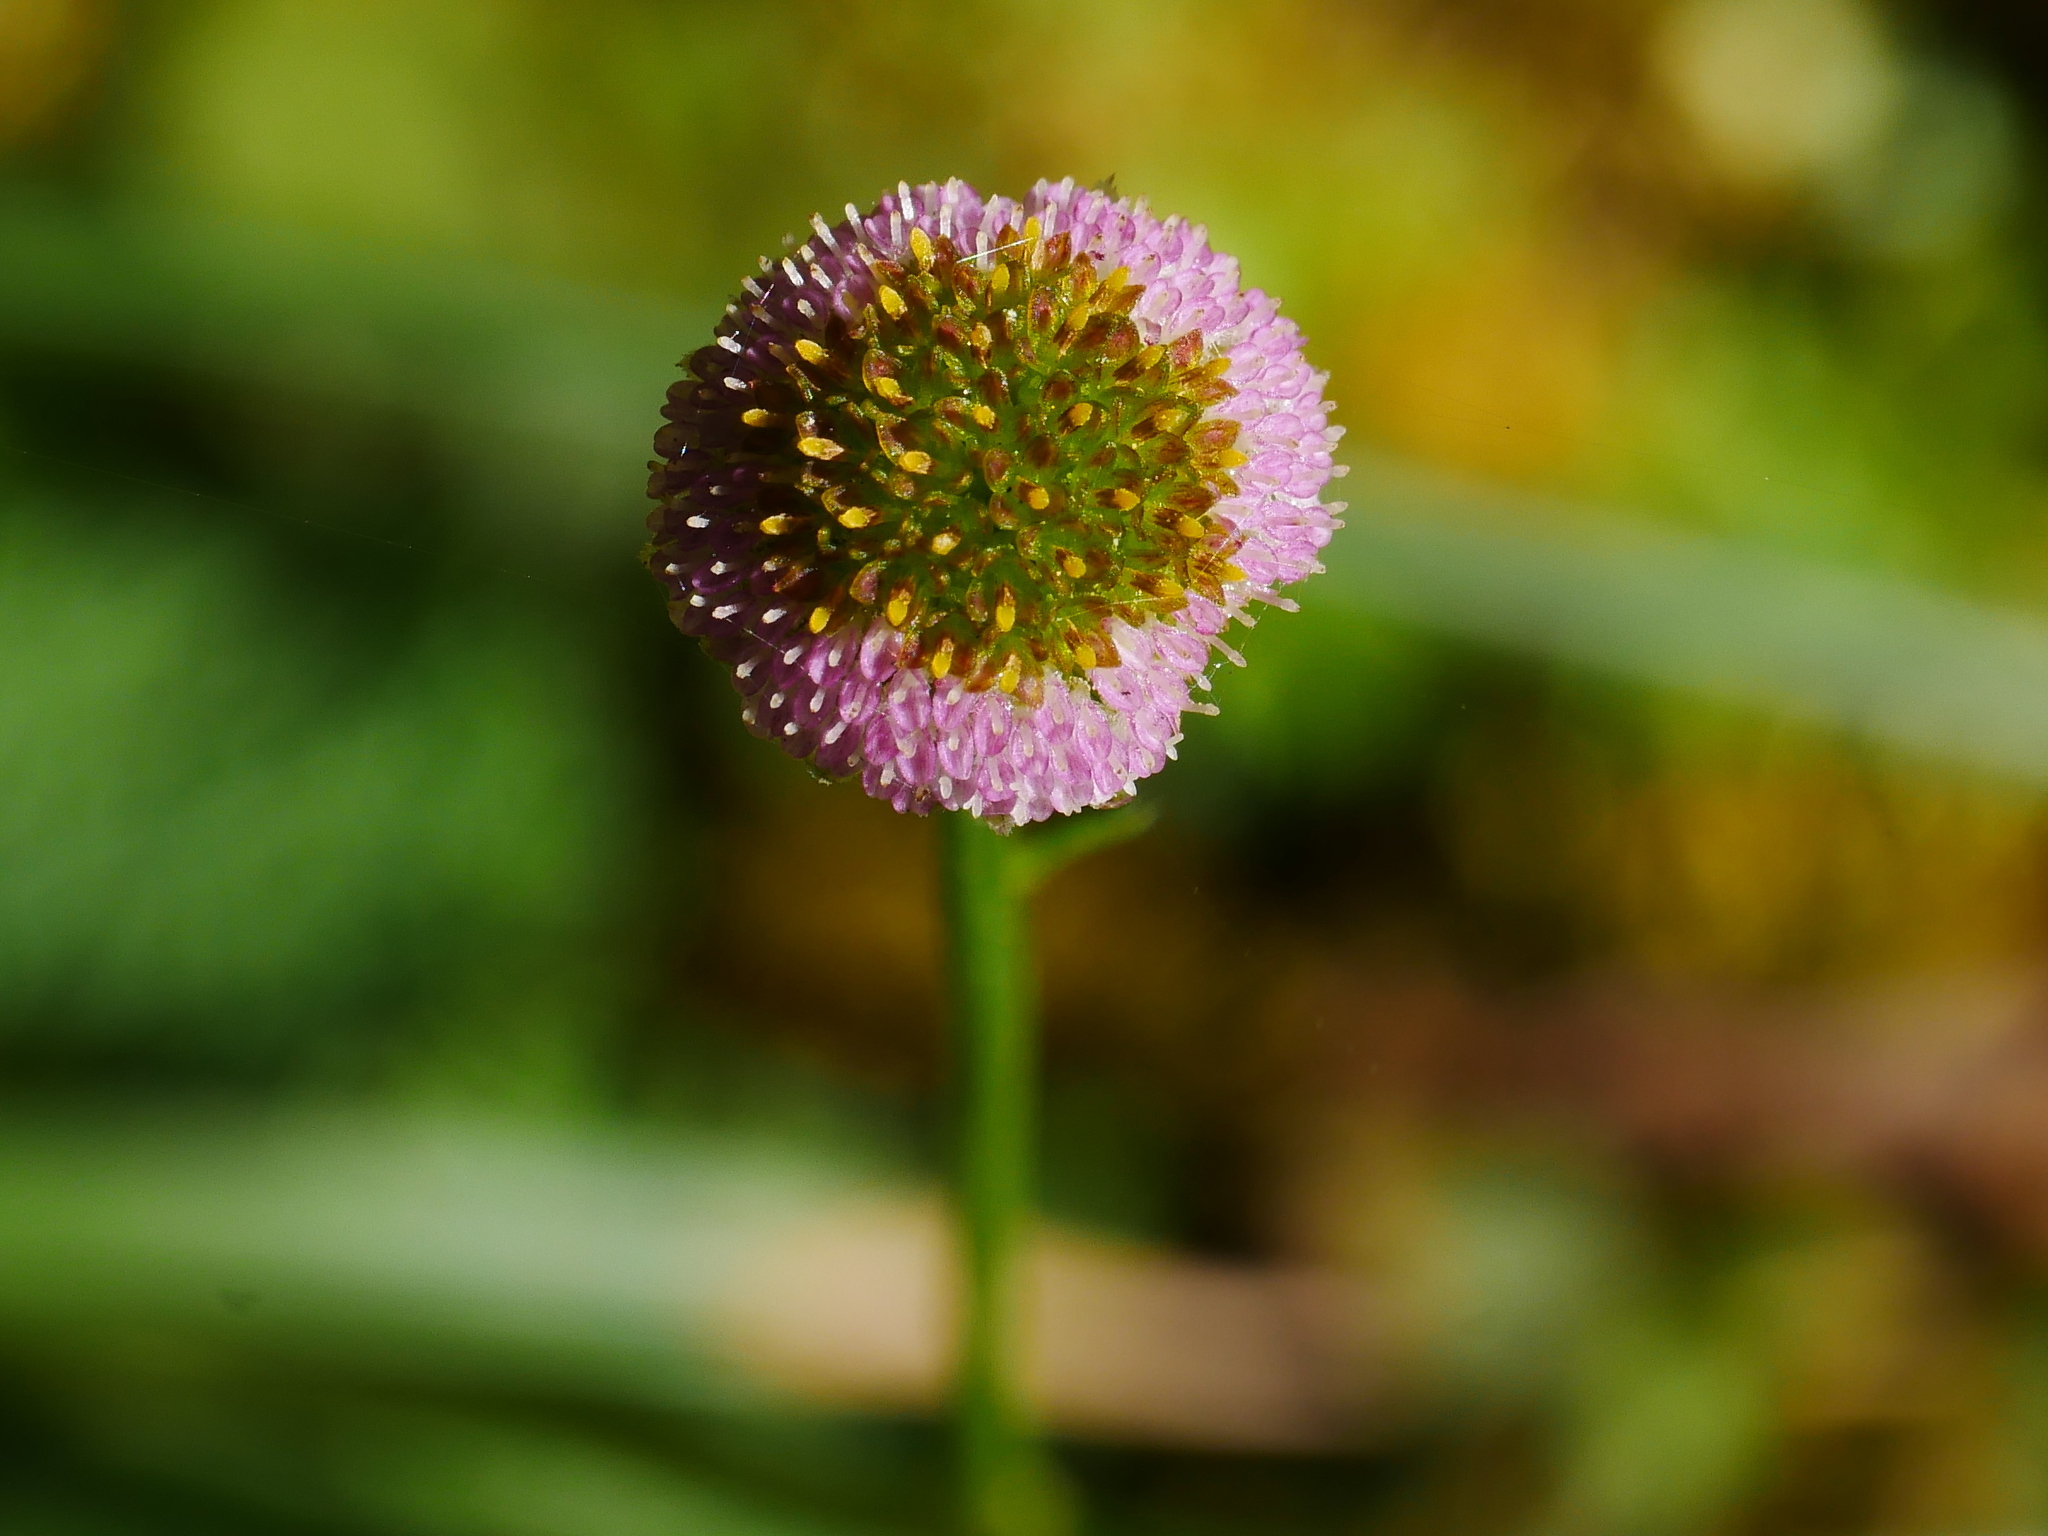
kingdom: Plantae
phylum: Tracheophyta
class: Magnoliopsida
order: Asterales
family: Asteraceae
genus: Myriactis
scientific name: Myriactis humilis
